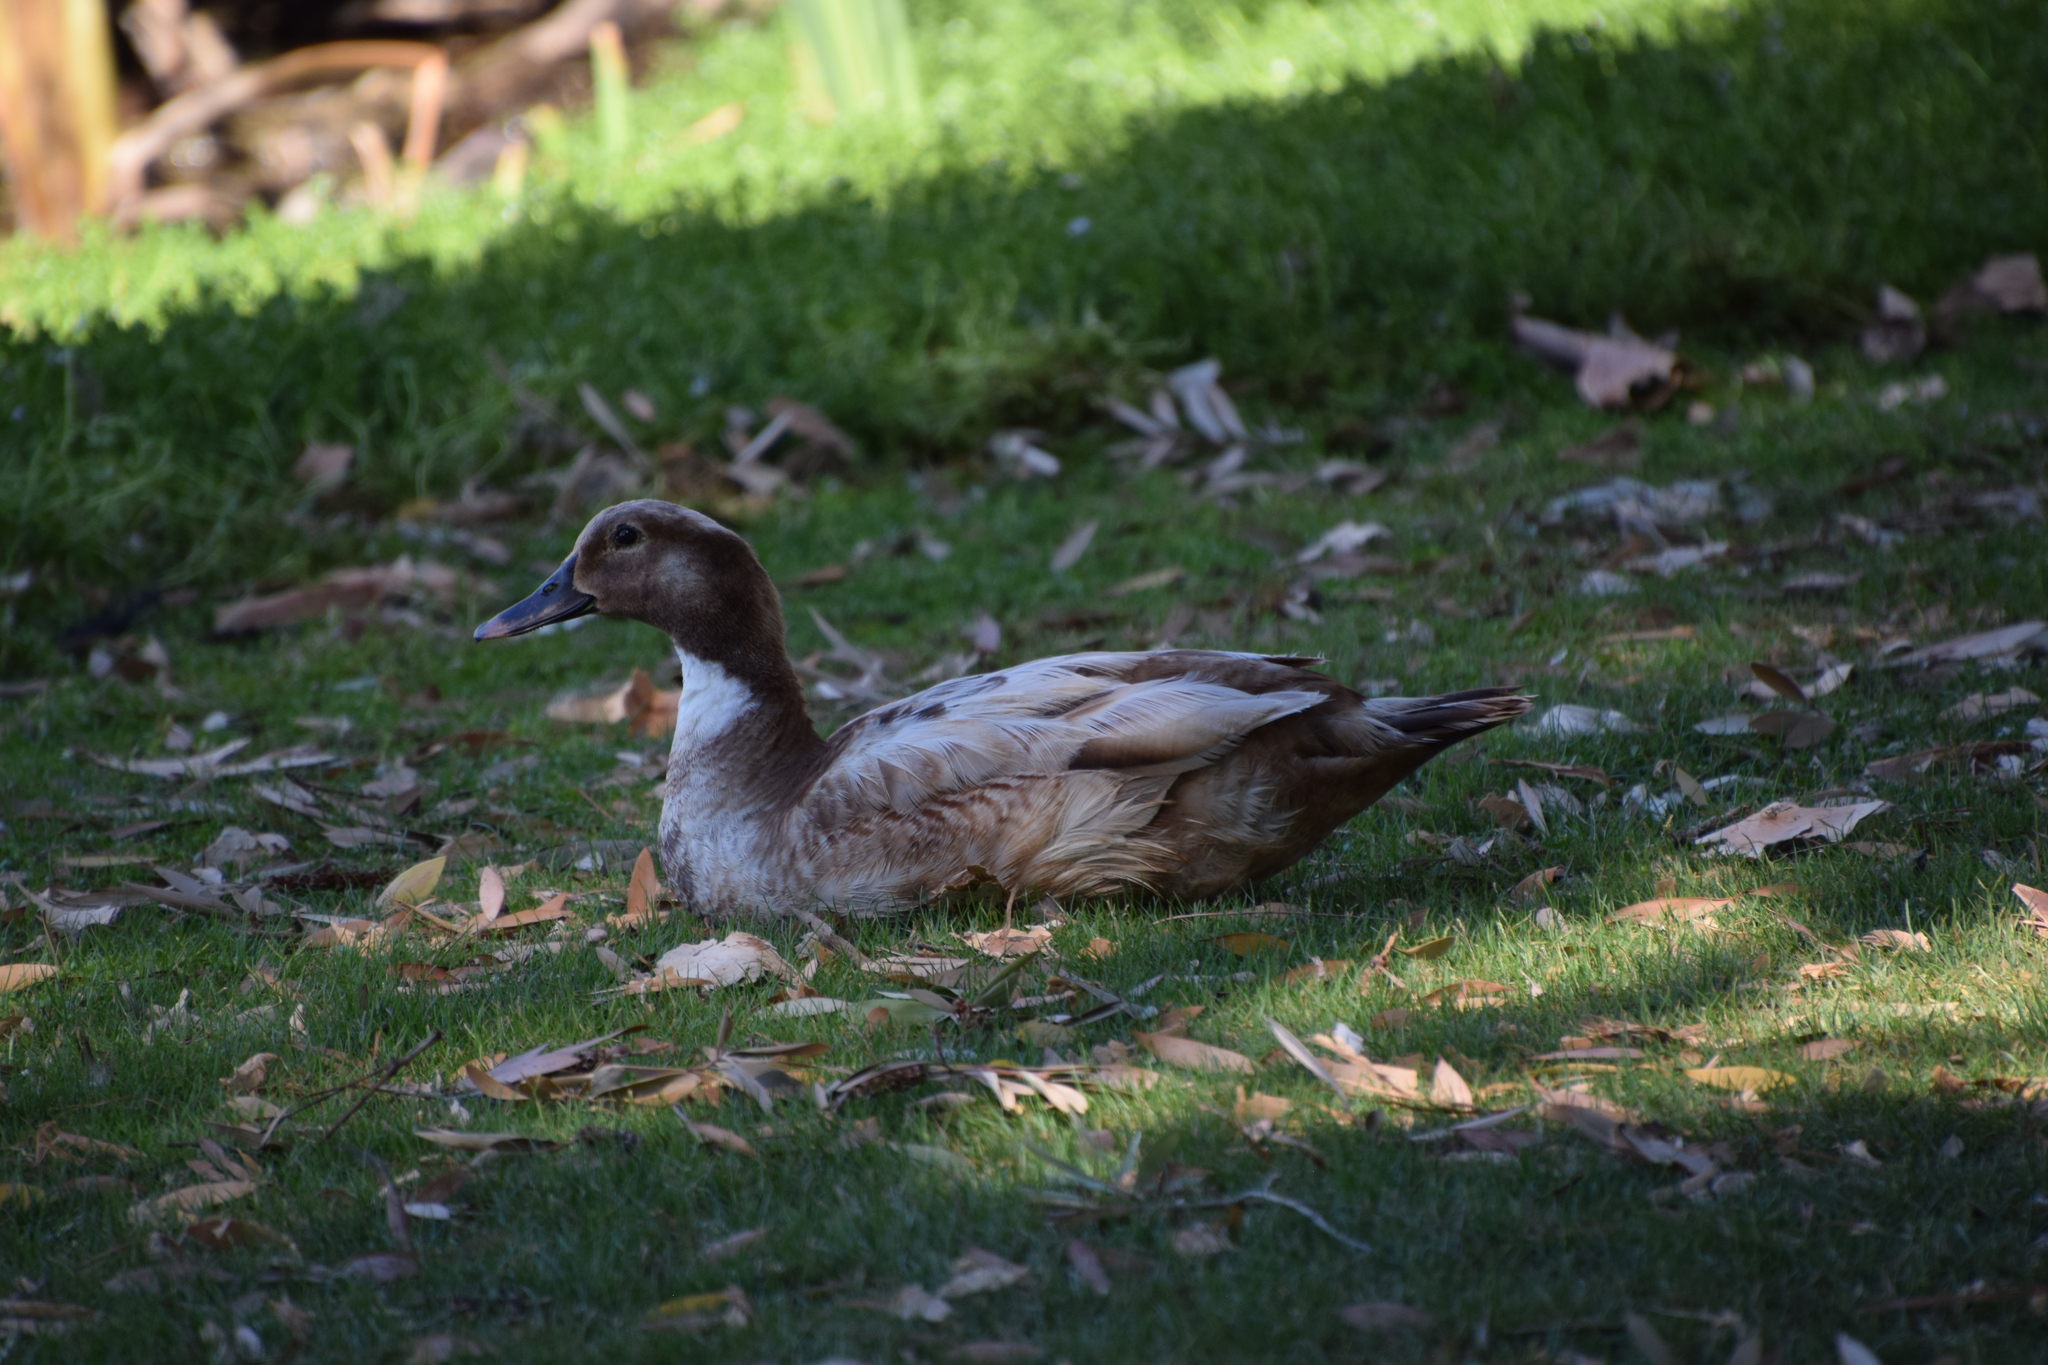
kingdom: Animalia
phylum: Chordata
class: Aves
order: Anseriformes
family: Anatidae
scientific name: Anatidae
